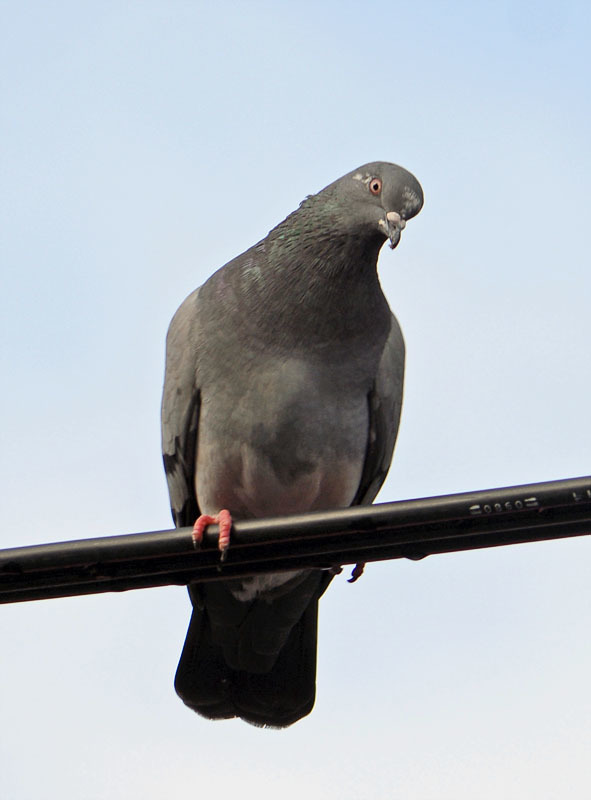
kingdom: Animalia
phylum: Chordata
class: Aves
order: Columbiformes
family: Columbidae
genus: Columba
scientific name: Columba livia
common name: Rock pigeon
